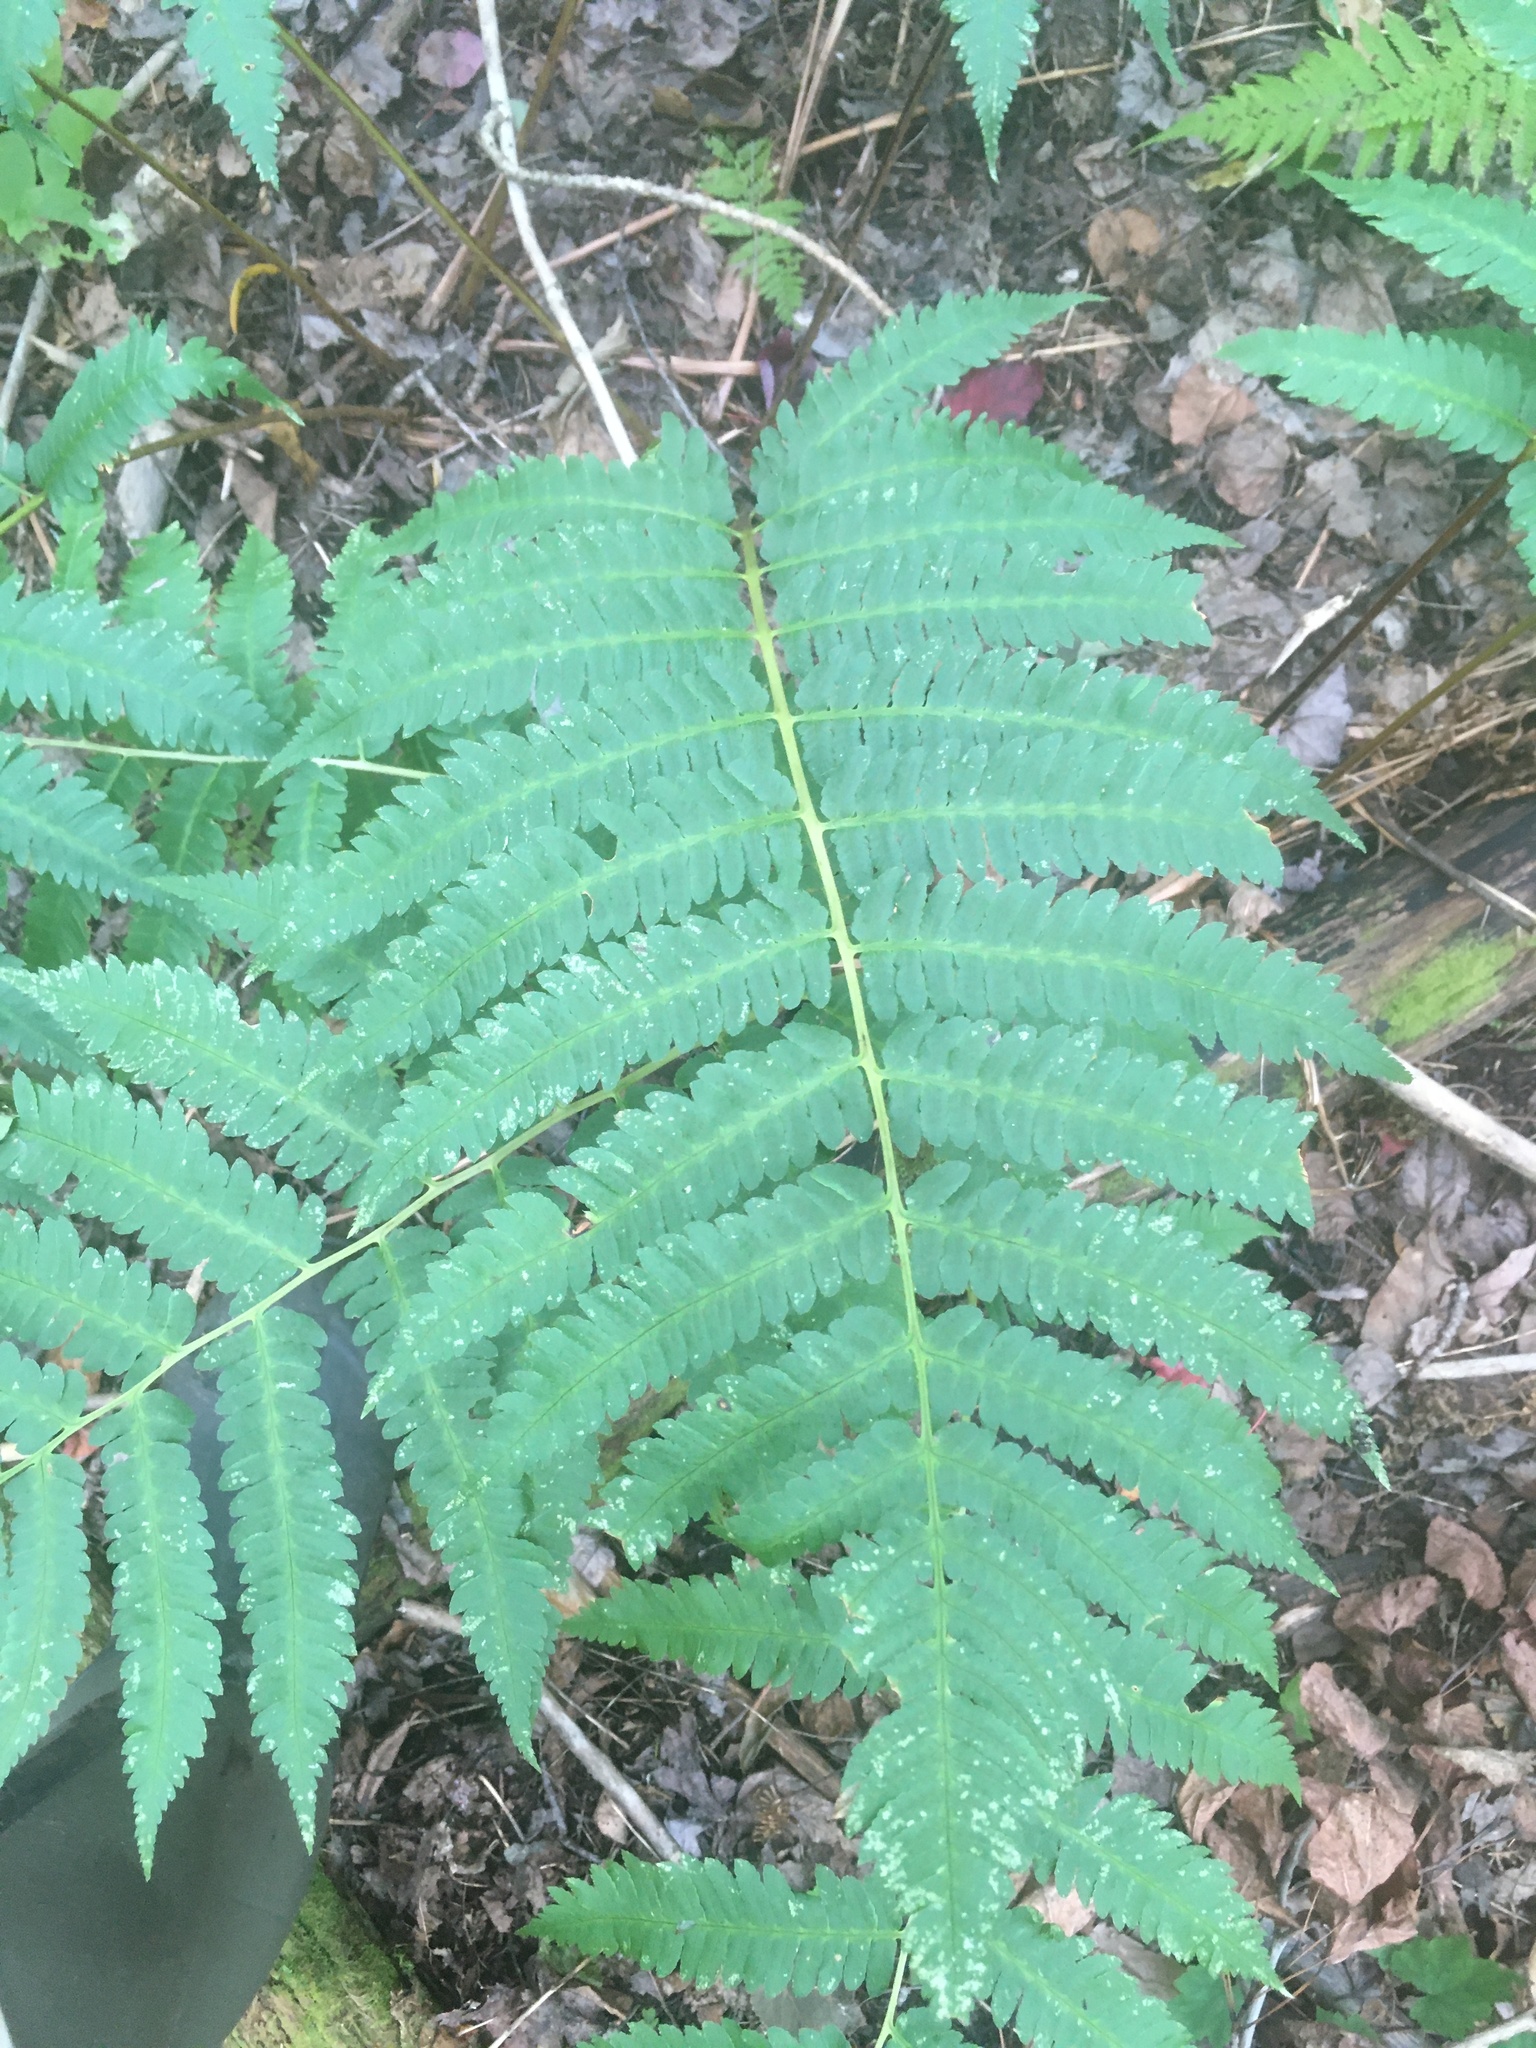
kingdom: Plantae
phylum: Tracheophyta
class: Polypodiopsida
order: Polypodiales
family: Dryopteridaceae
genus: Dryopteris
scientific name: Dryopteris goldieana
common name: Goldie's fern
